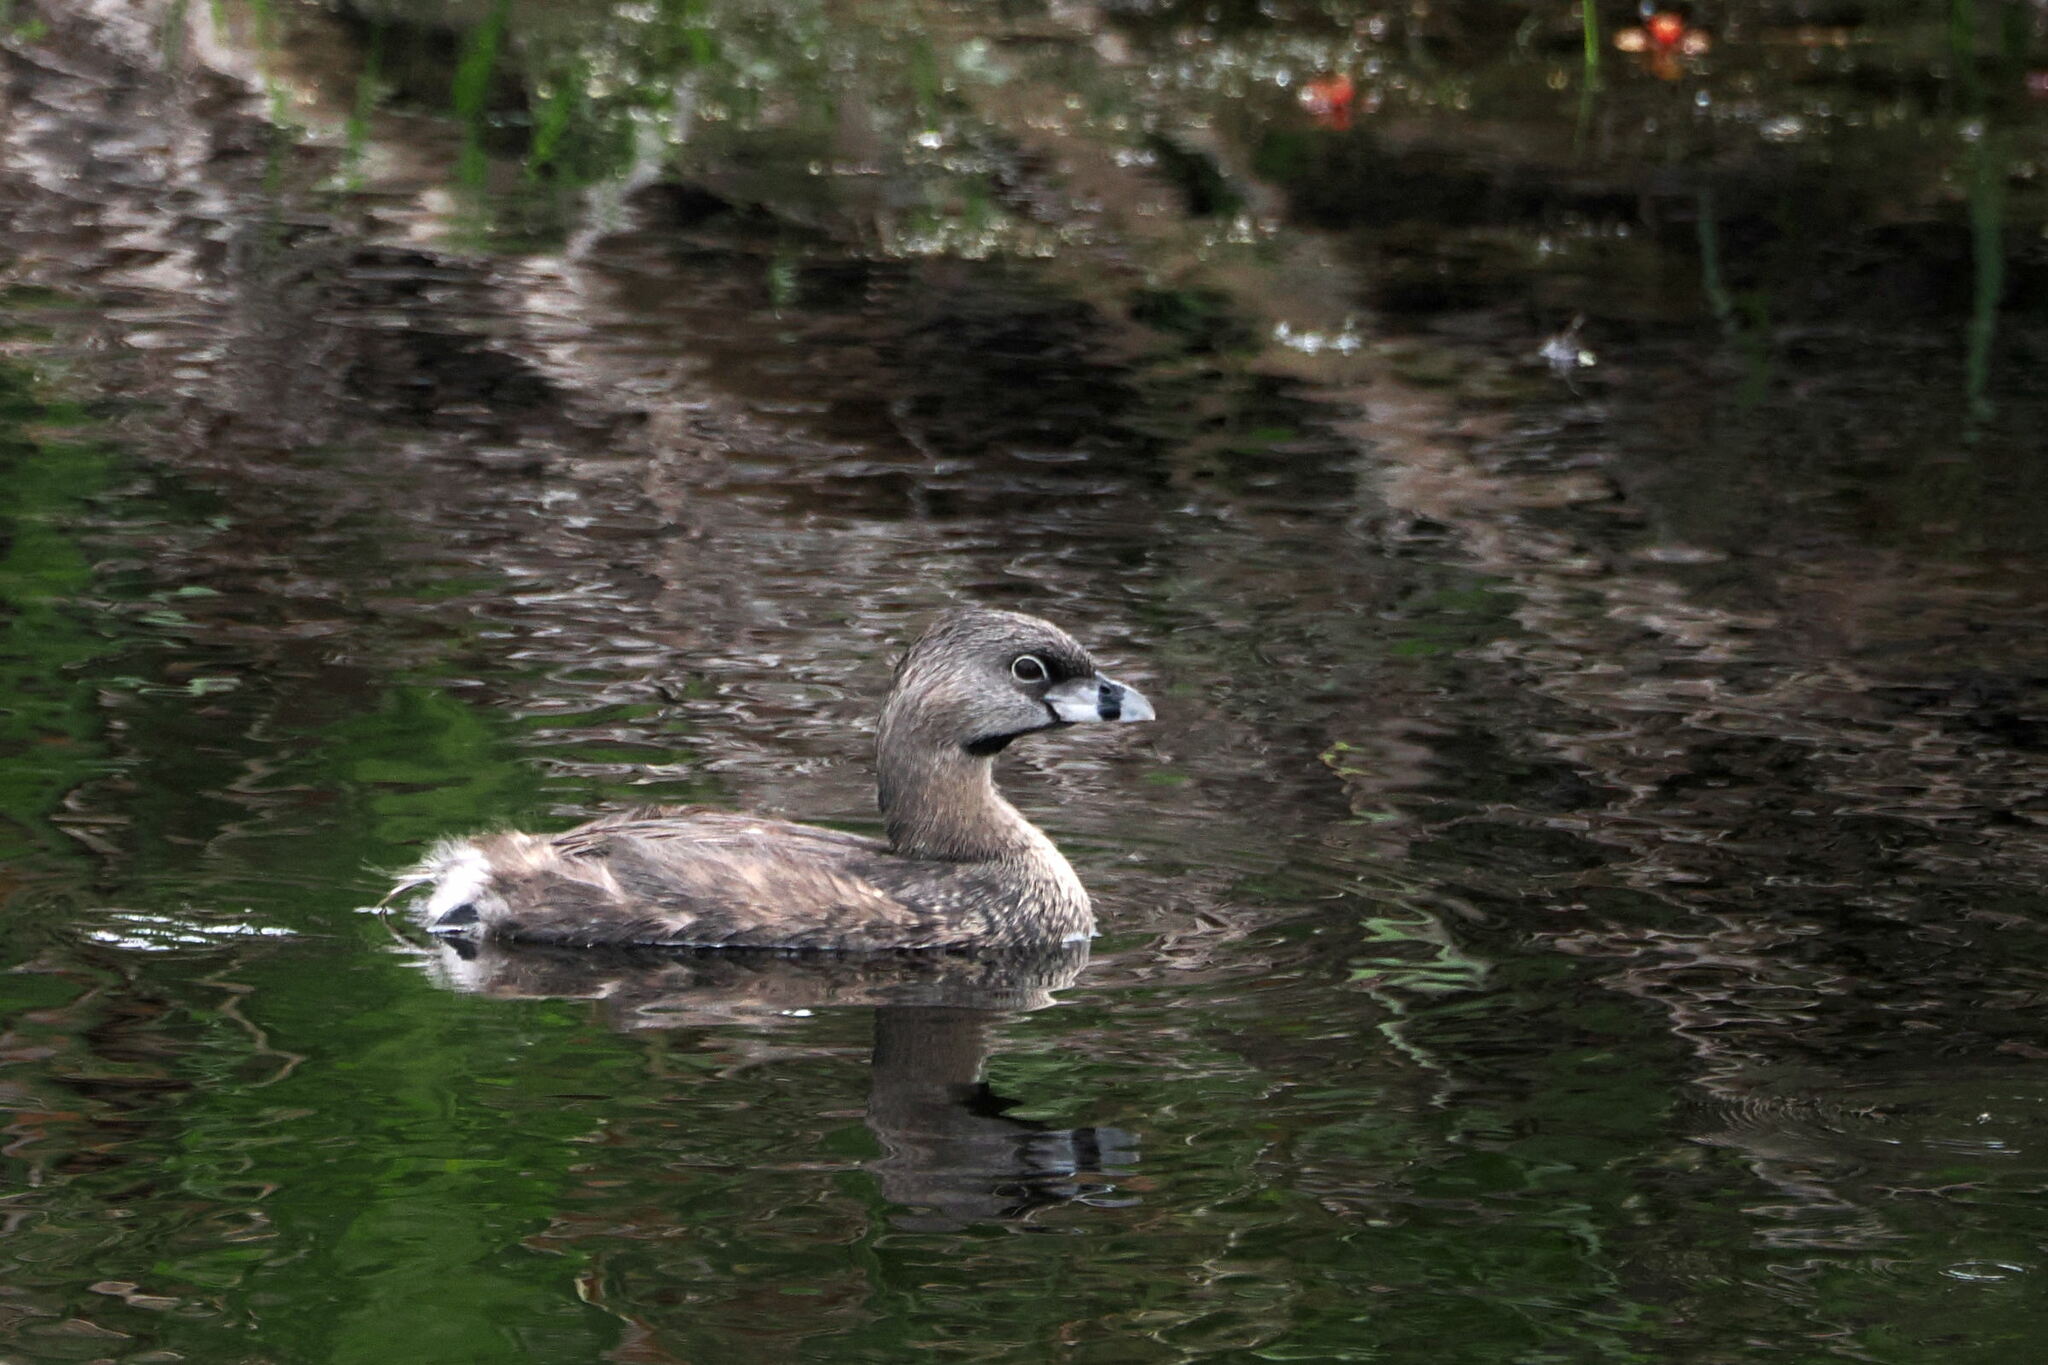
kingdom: Animalia
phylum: Chordata
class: Aves
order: Podicipediformes
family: Podicipedidae
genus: Podilymbus
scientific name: Podilymbus podiceps
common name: Pied-billed grebe
